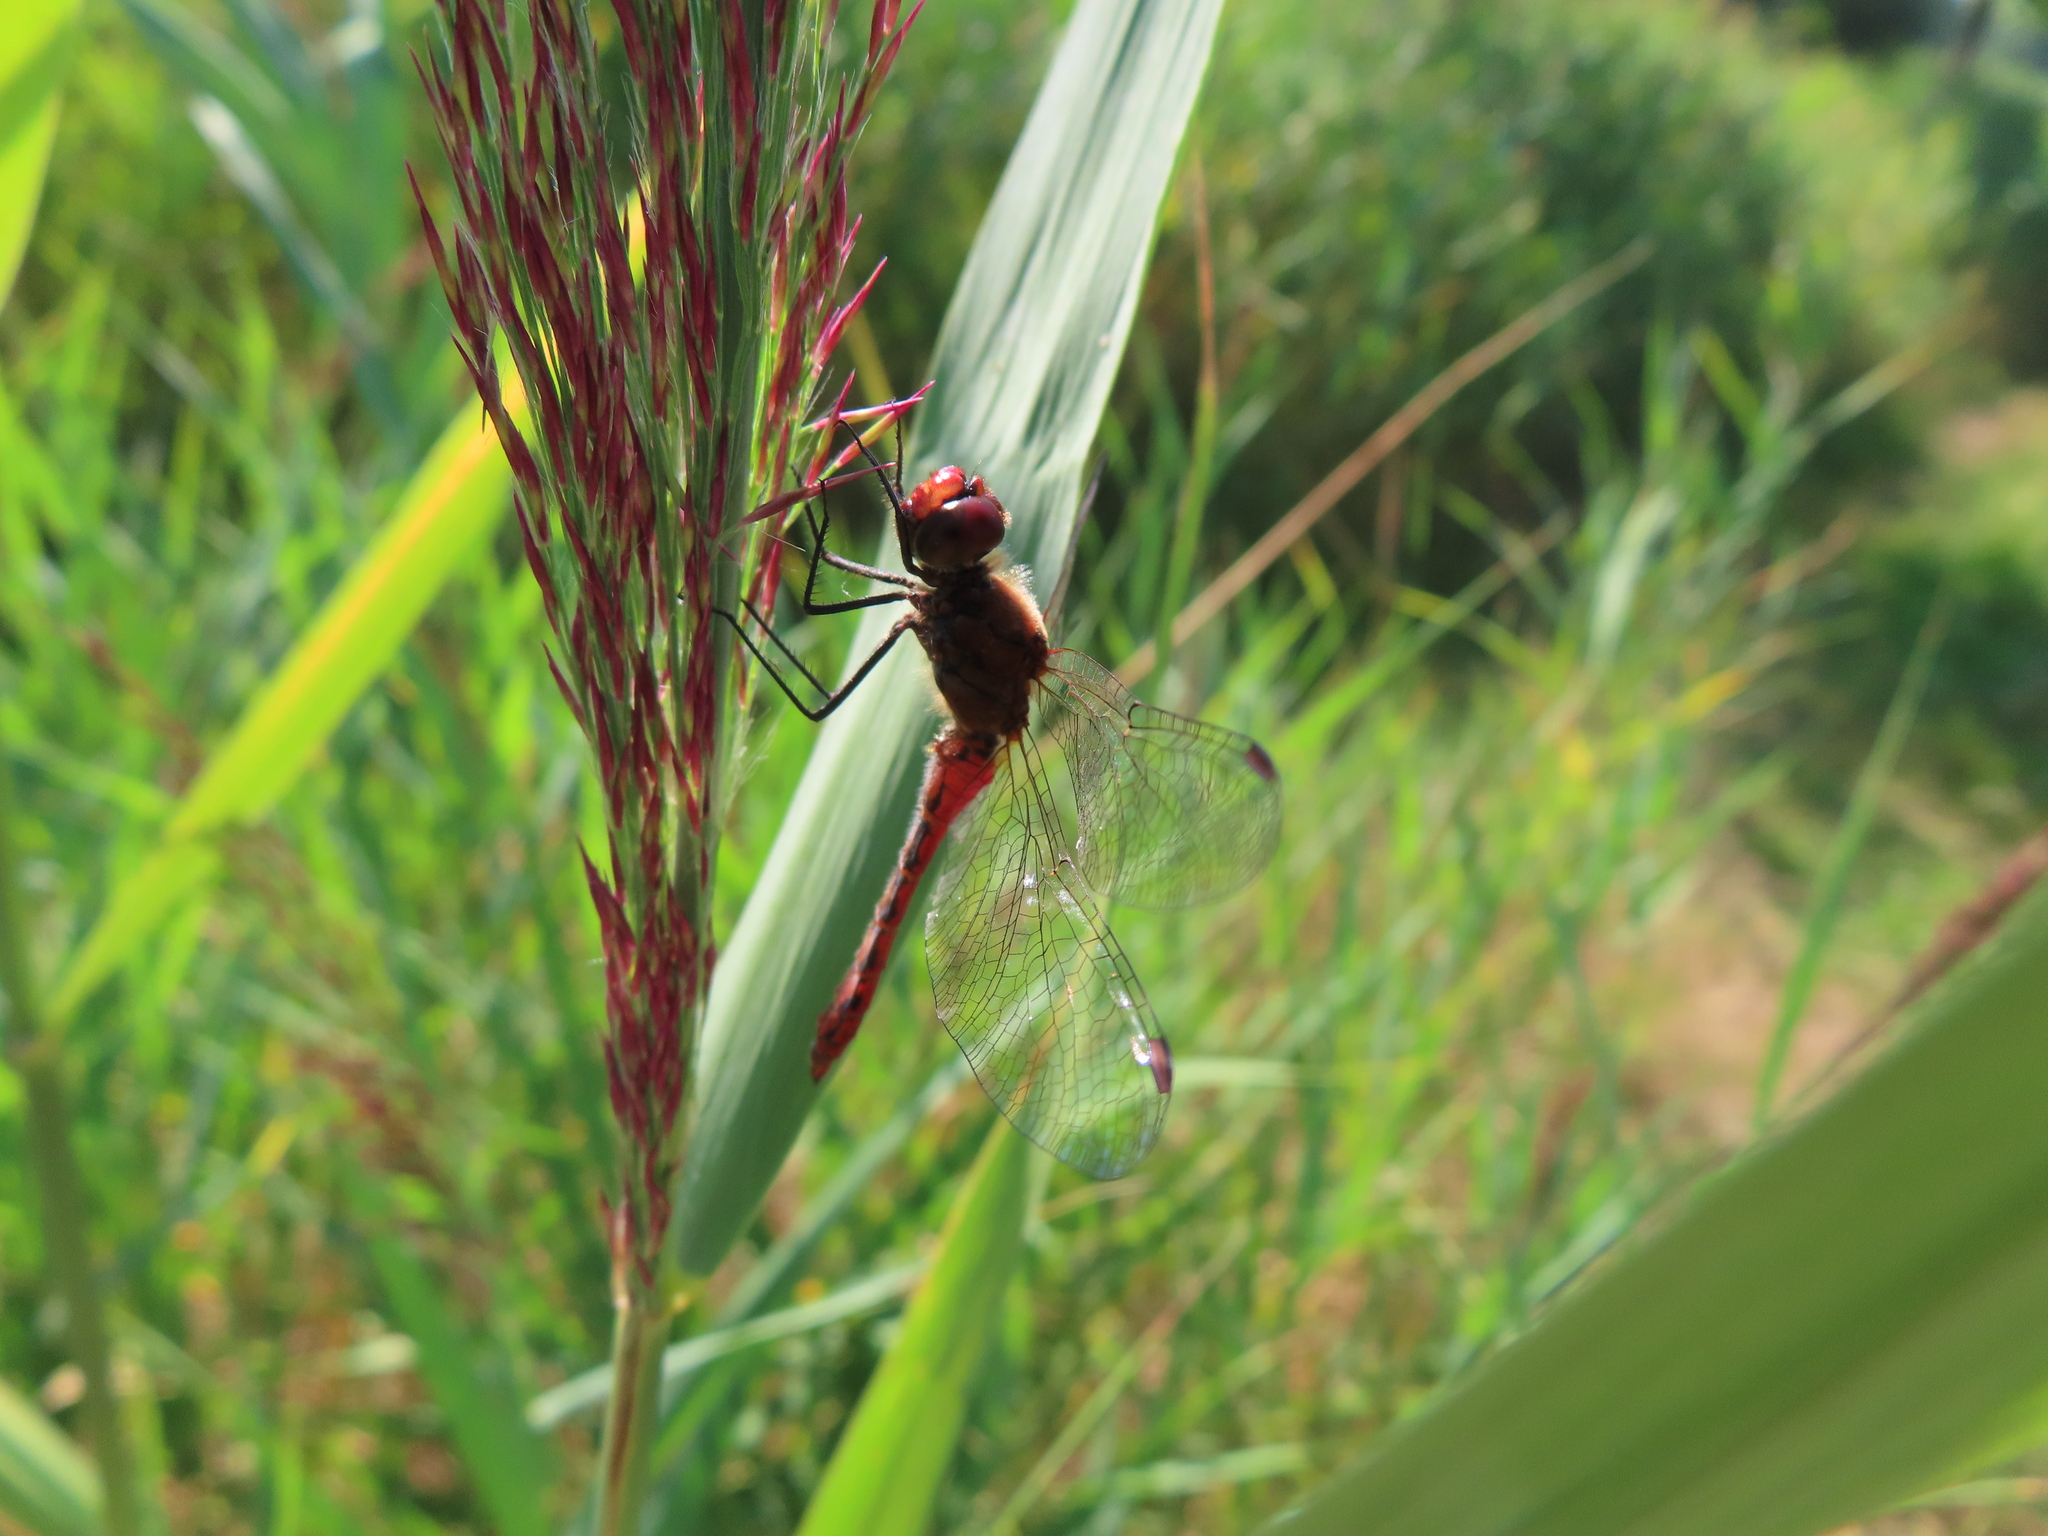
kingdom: Animalia
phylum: Arthropoda
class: Insecta
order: Odonata
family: Libellulidae
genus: Sympetrum
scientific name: Sympetrum sanguineum
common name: Ruddy darter
